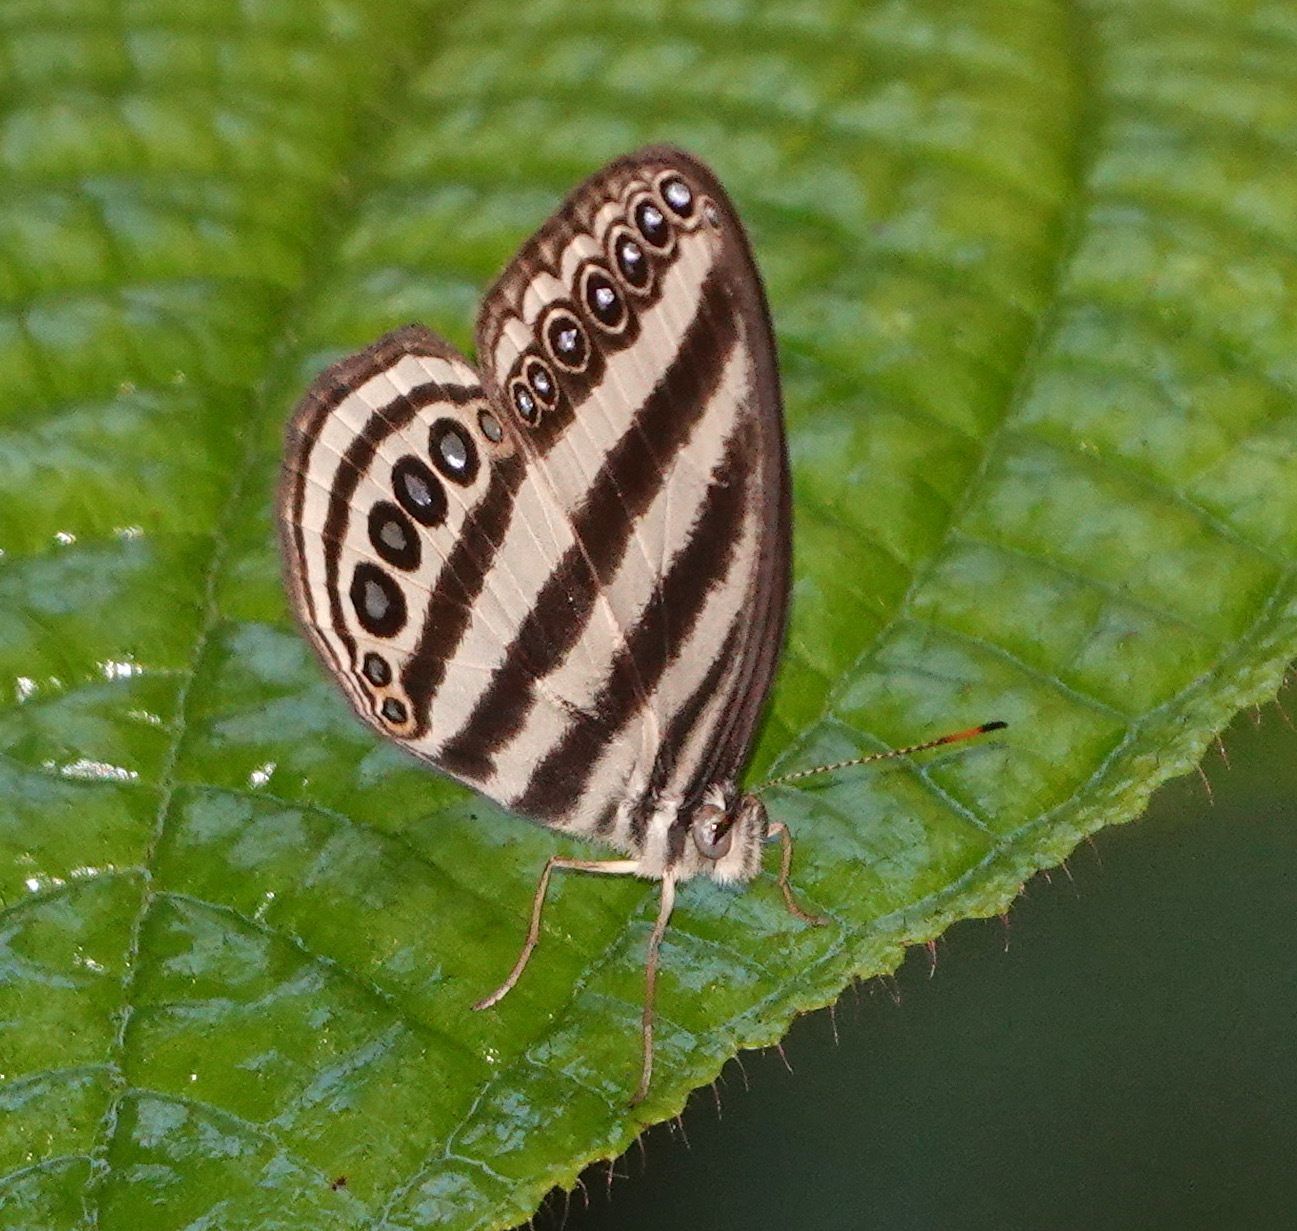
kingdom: Animalia
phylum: Arthropoda
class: Insecta
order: Lepidoptera
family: Nymphalidae
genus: Ragadia
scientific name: Ragadia makuta
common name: Striped ringlet
